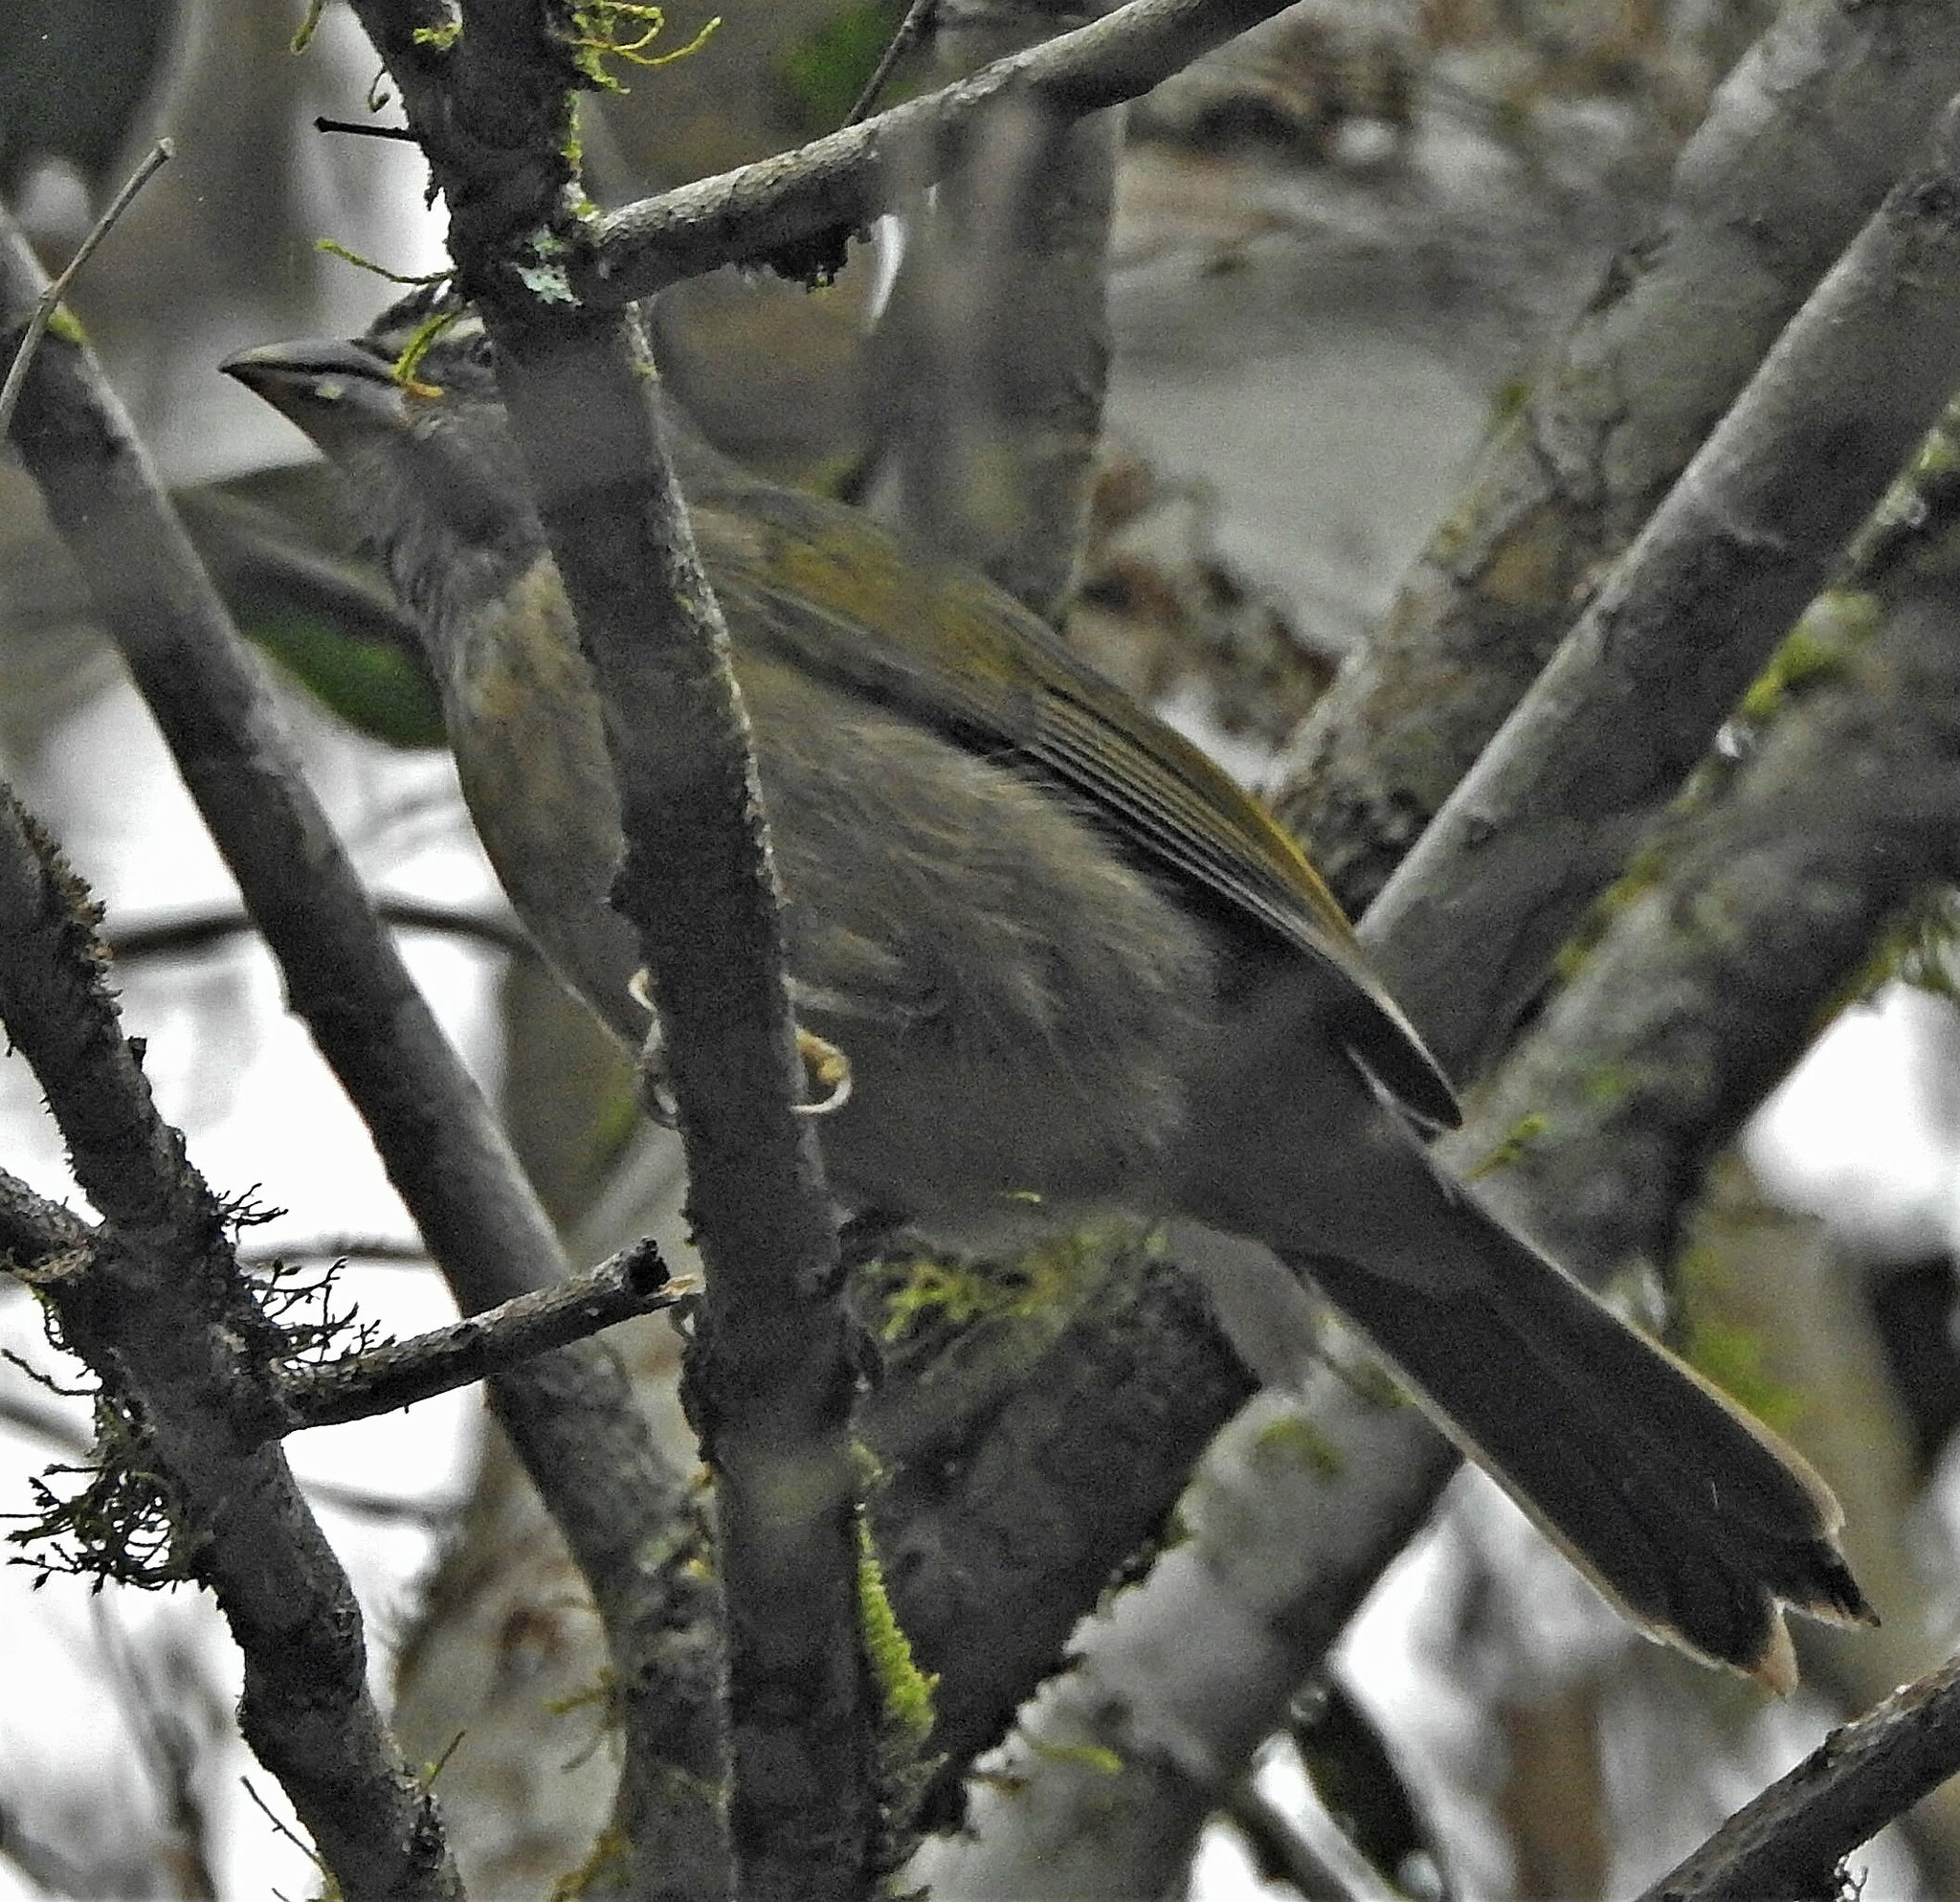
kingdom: Animalia
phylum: Chordata
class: Aves
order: Passeriformes
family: Thraupidae
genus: Saltator
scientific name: Saltator similis
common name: Green-winged saltator
